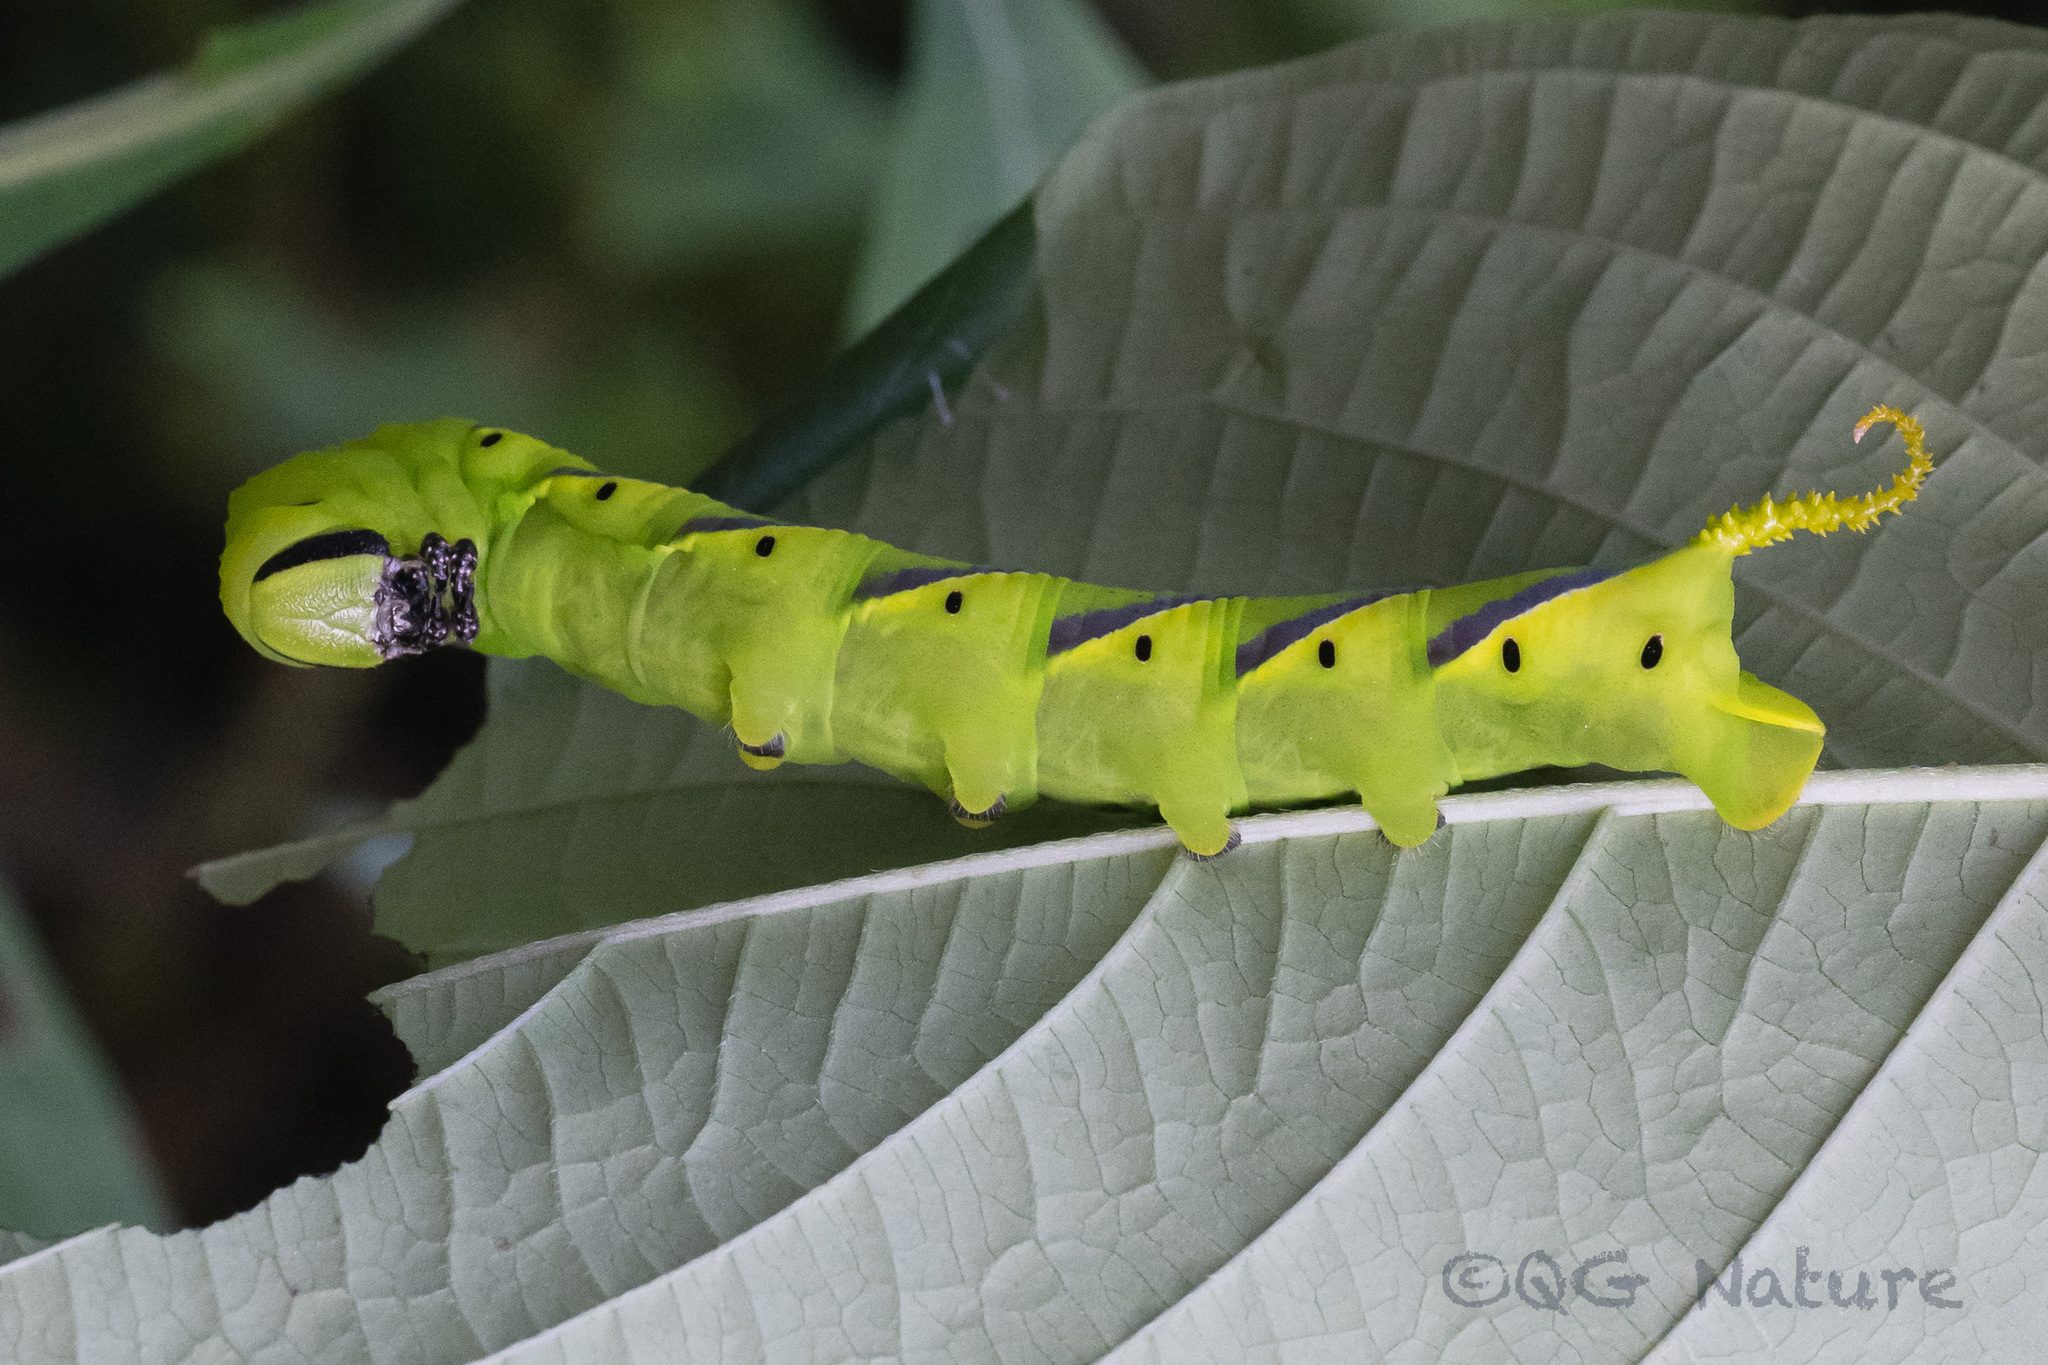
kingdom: Animalia
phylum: Arthropoda
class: Insecta
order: Lepidoptera
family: Sphingidae
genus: Acherontia
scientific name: Acherontia lachesis
